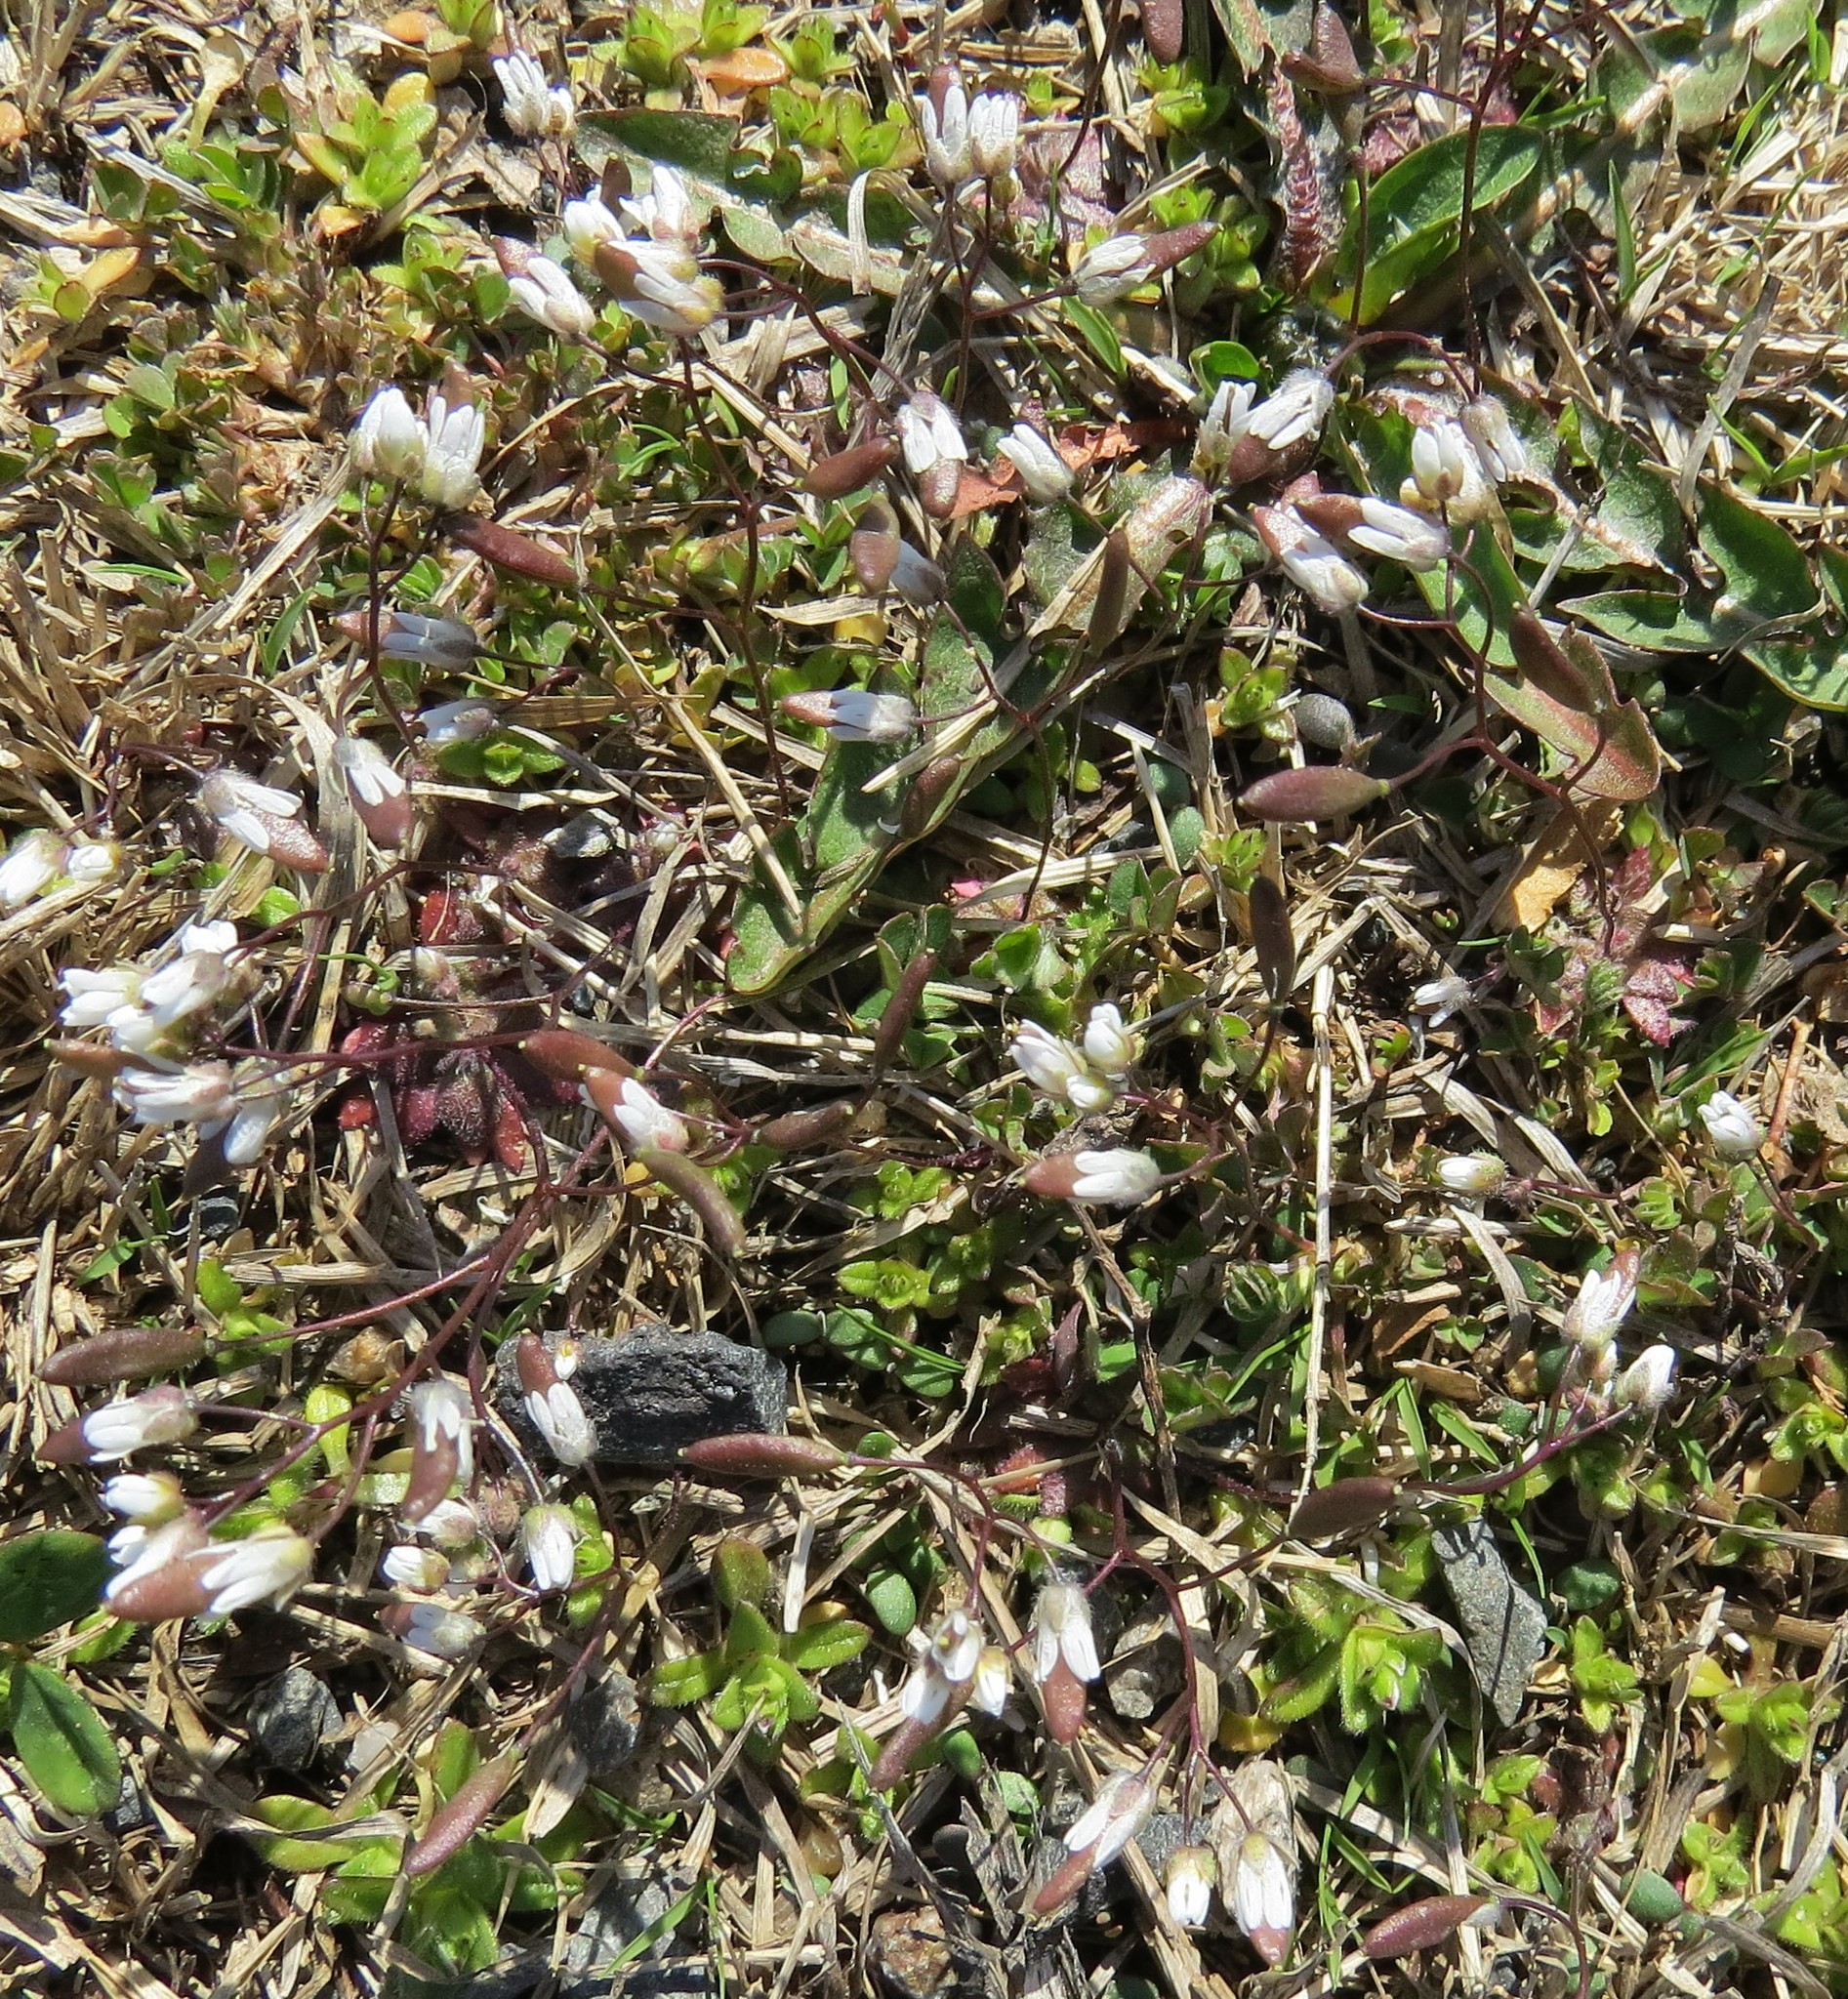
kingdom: Plantae
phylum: Tracheophyta
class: Magnoliopsida
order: Brassicales
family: Brassicaceae
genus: Draba
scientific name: Draba verna
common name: Spring draba
